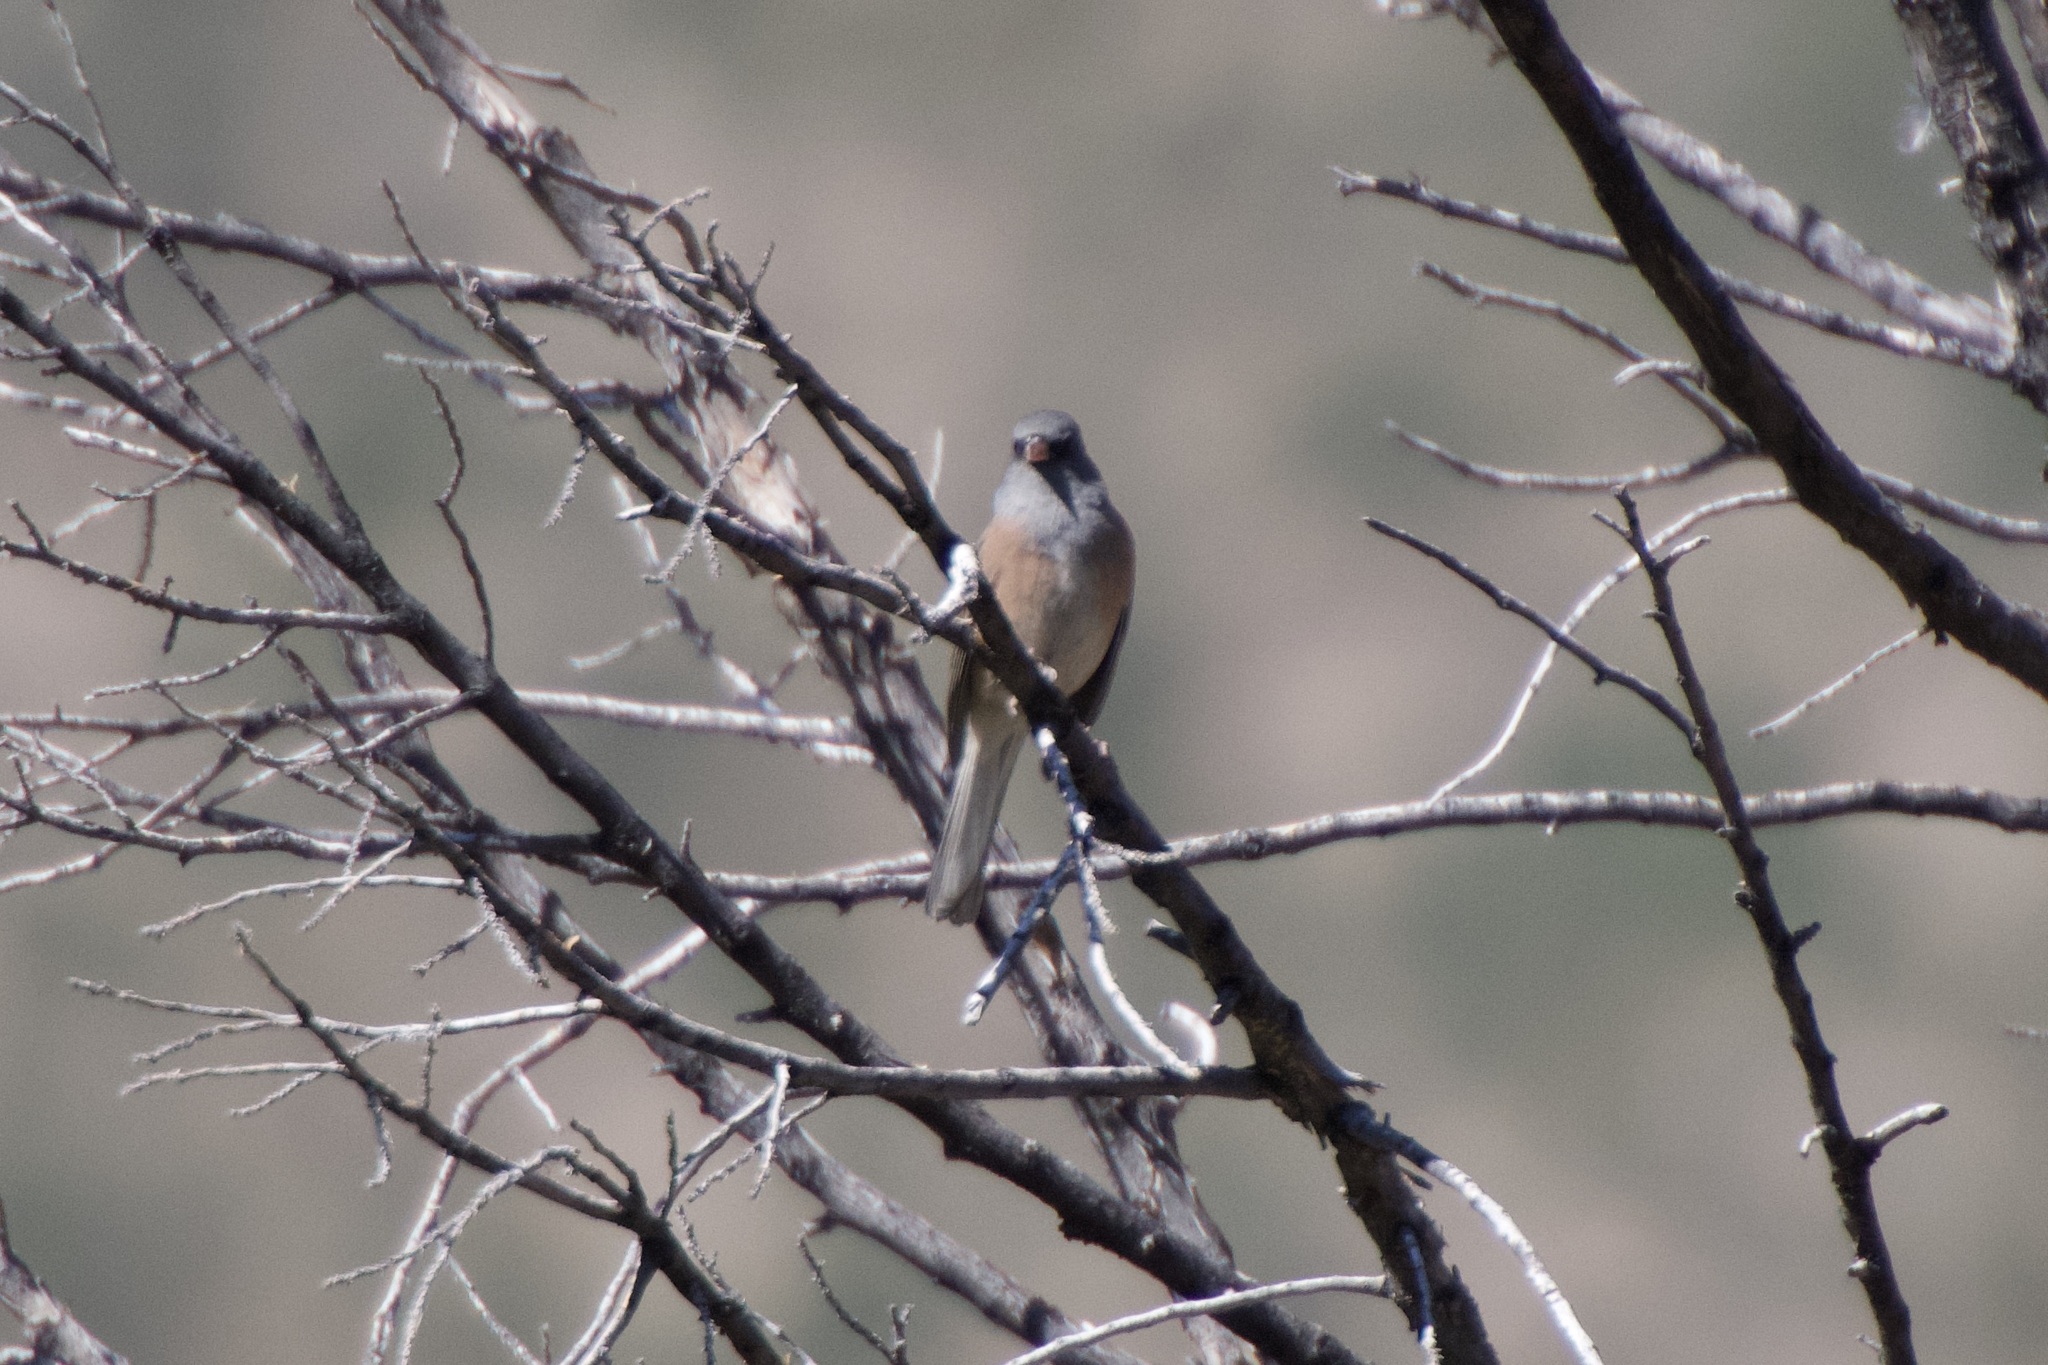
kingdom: Animalia
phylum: Chordata
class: Aves
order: Passeriformes
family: Passerellidae
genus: Junco
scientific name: Junco hyemalis
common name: Dark-eyed junco
